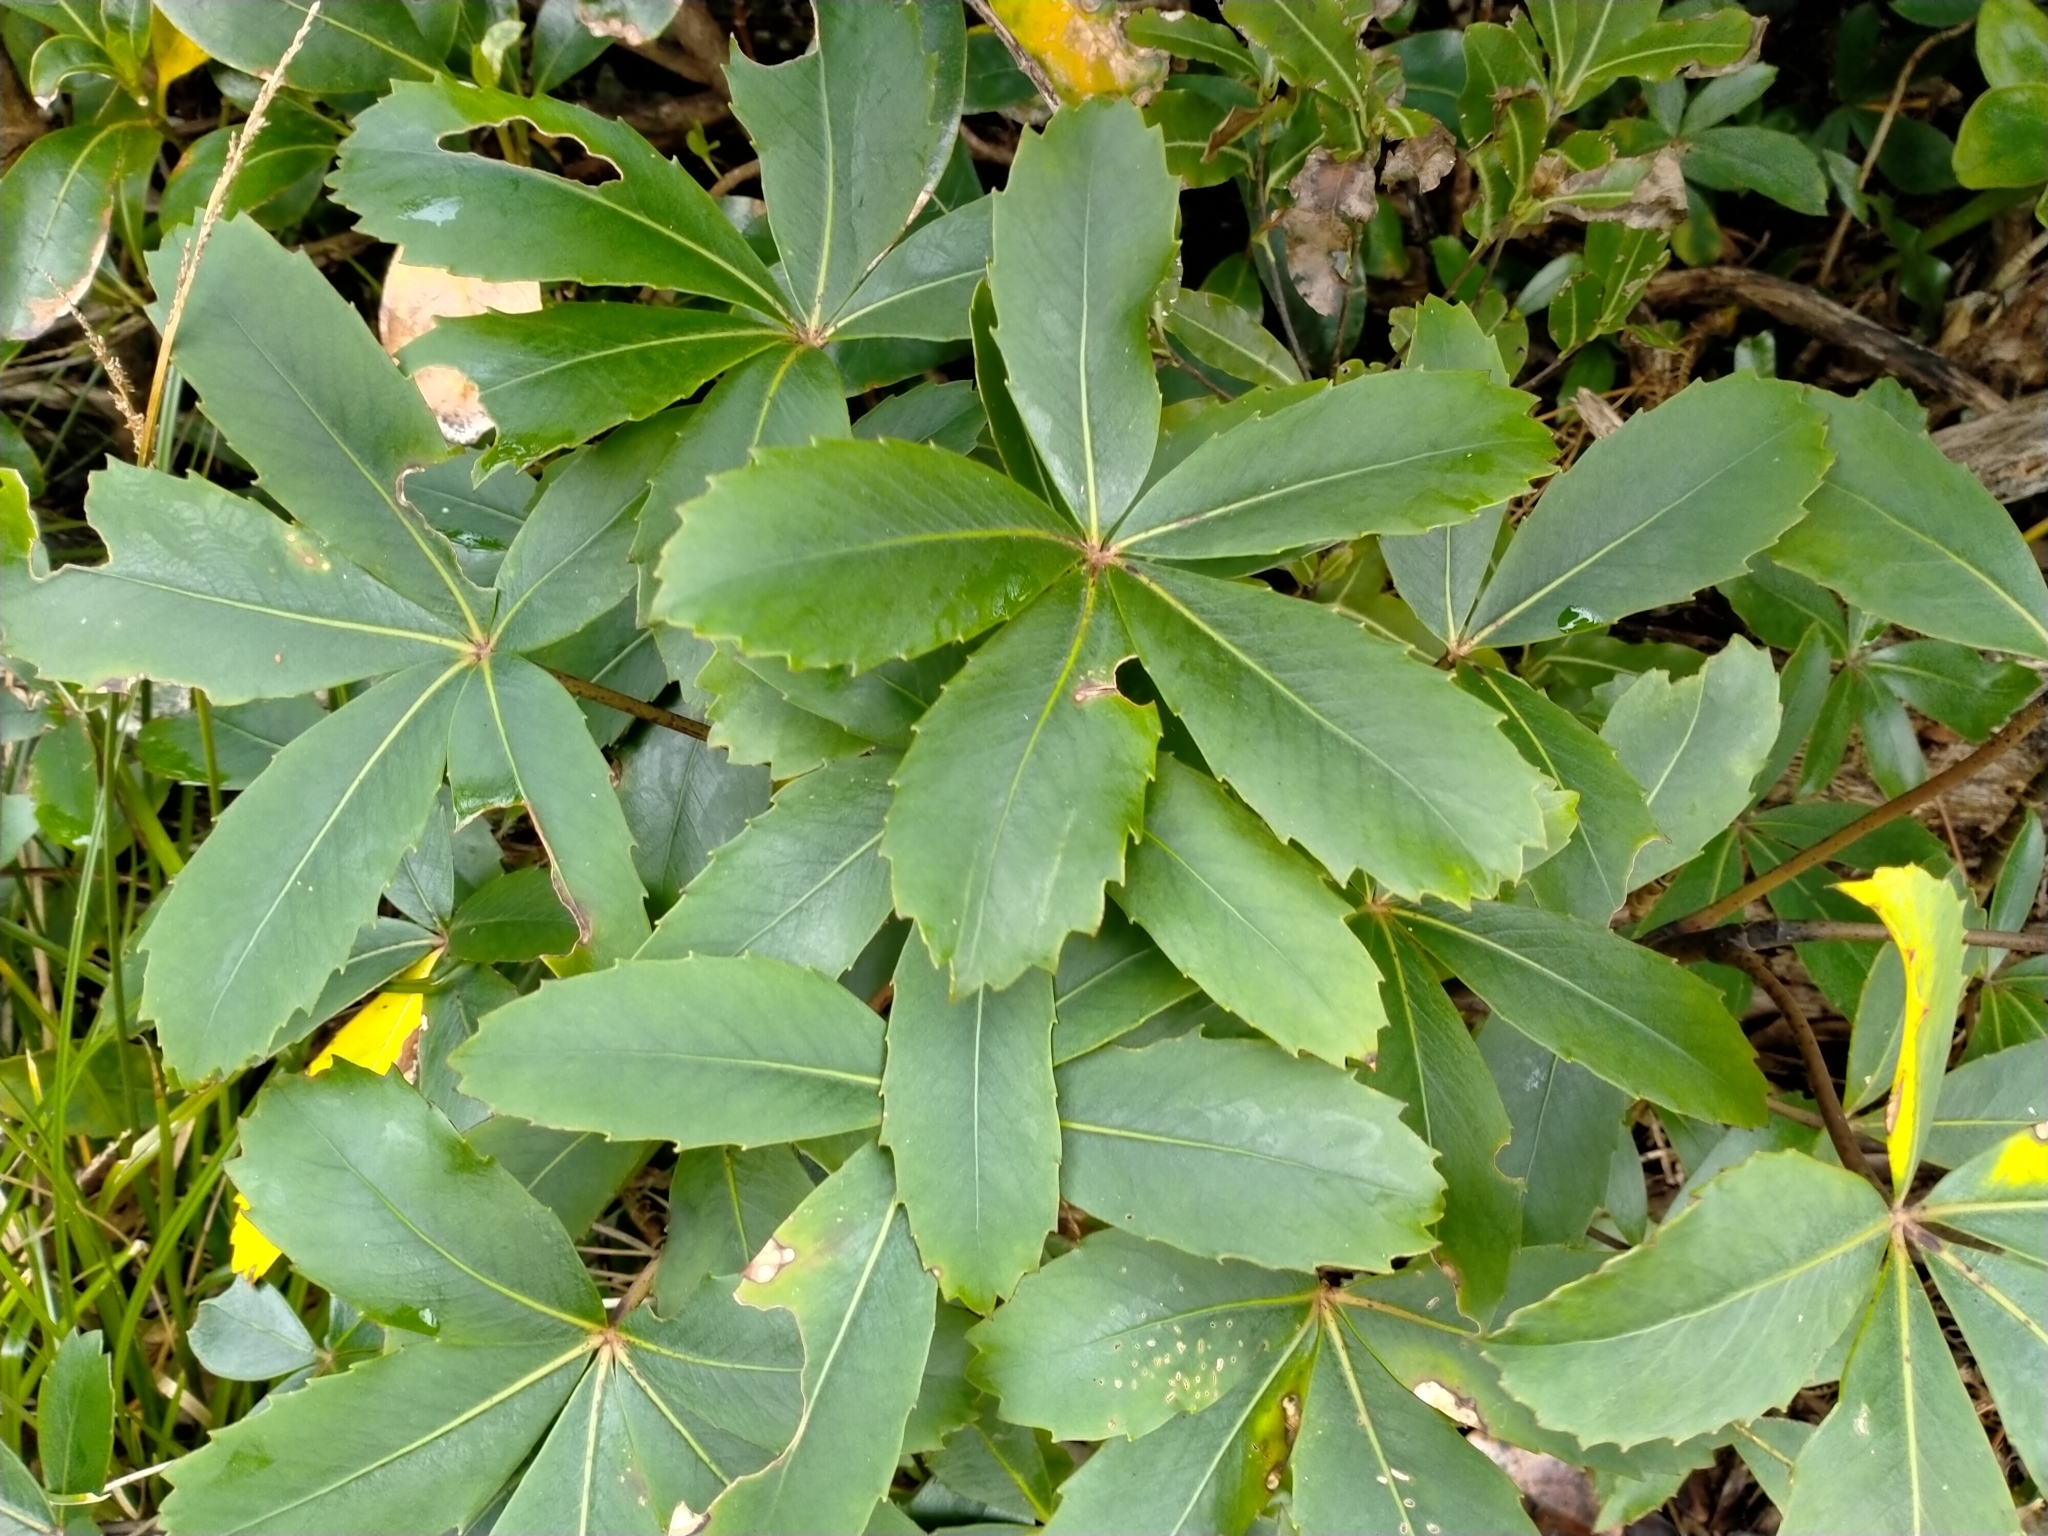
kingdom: Plantae
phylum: Tracheophyta
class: Magnoliopsida
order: Apiales
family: Araliaceae
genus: Neopanax
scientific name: Neopanax colensoi
